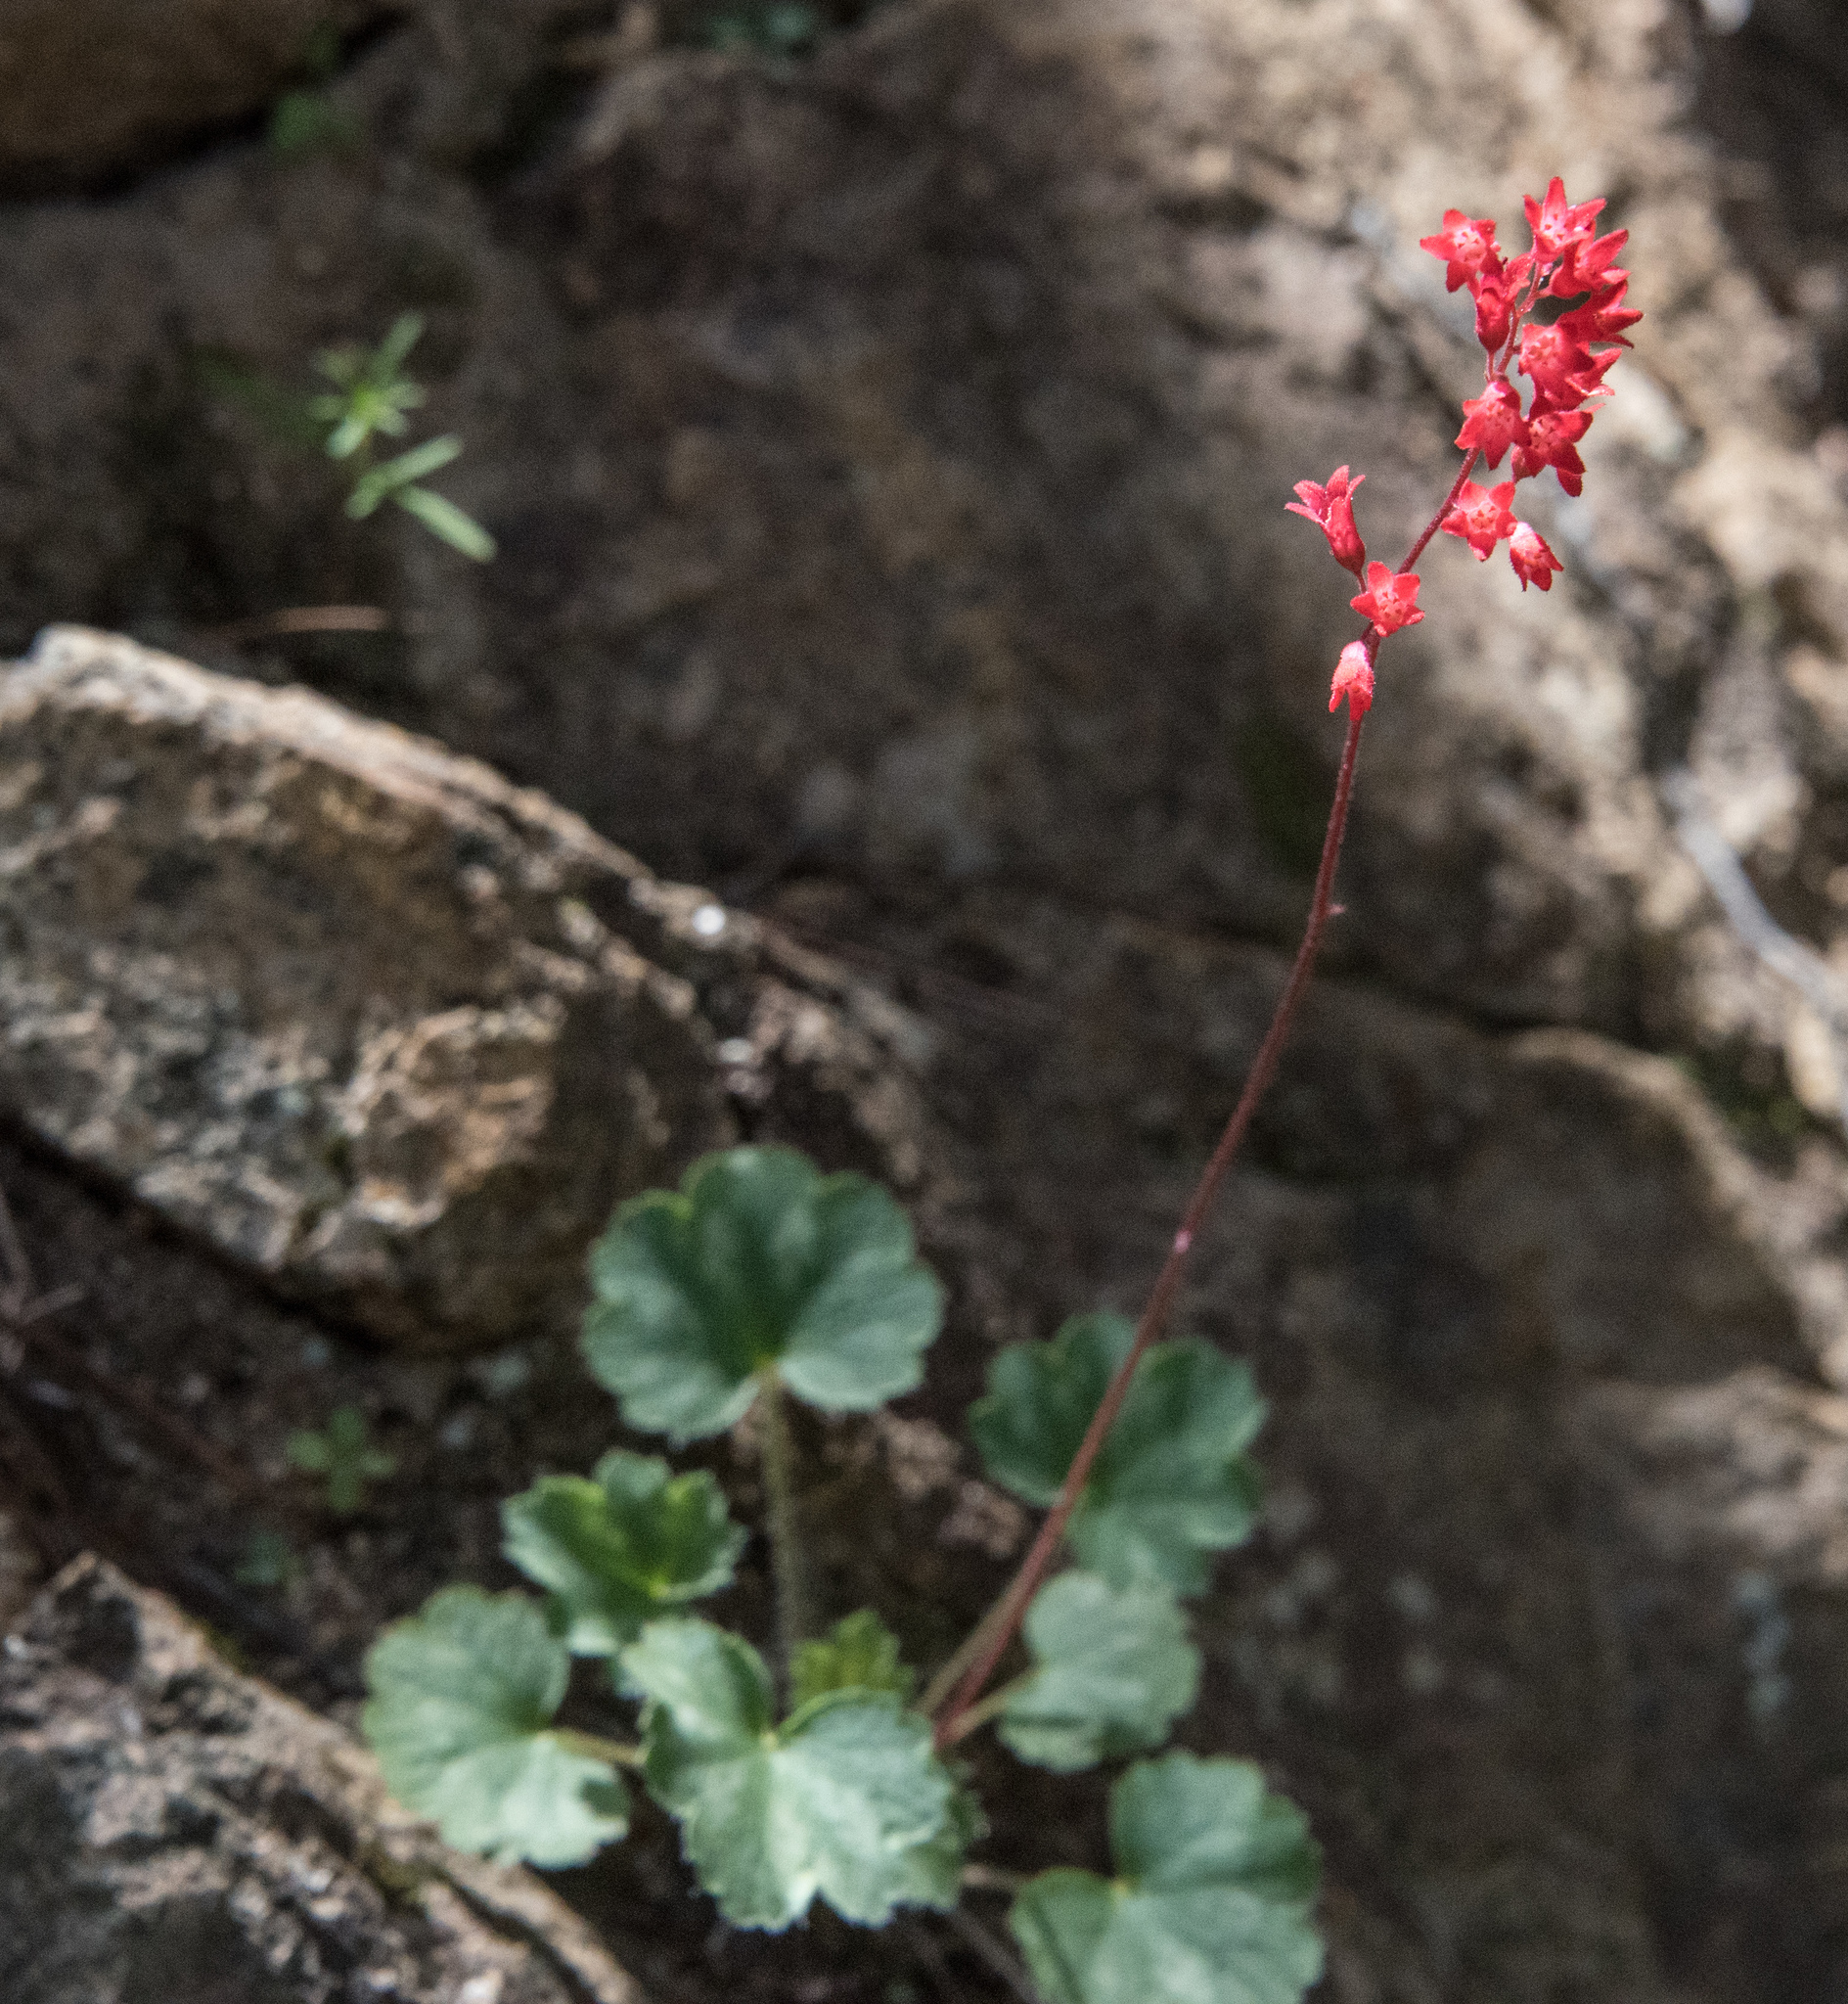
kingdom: Plantae
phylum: Tracheophyta
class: Magnoliopsida
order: Saxifragales
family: Saxifragaceae
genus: Heuchera
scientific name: Heuchera sanguinea
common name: Coralbells
